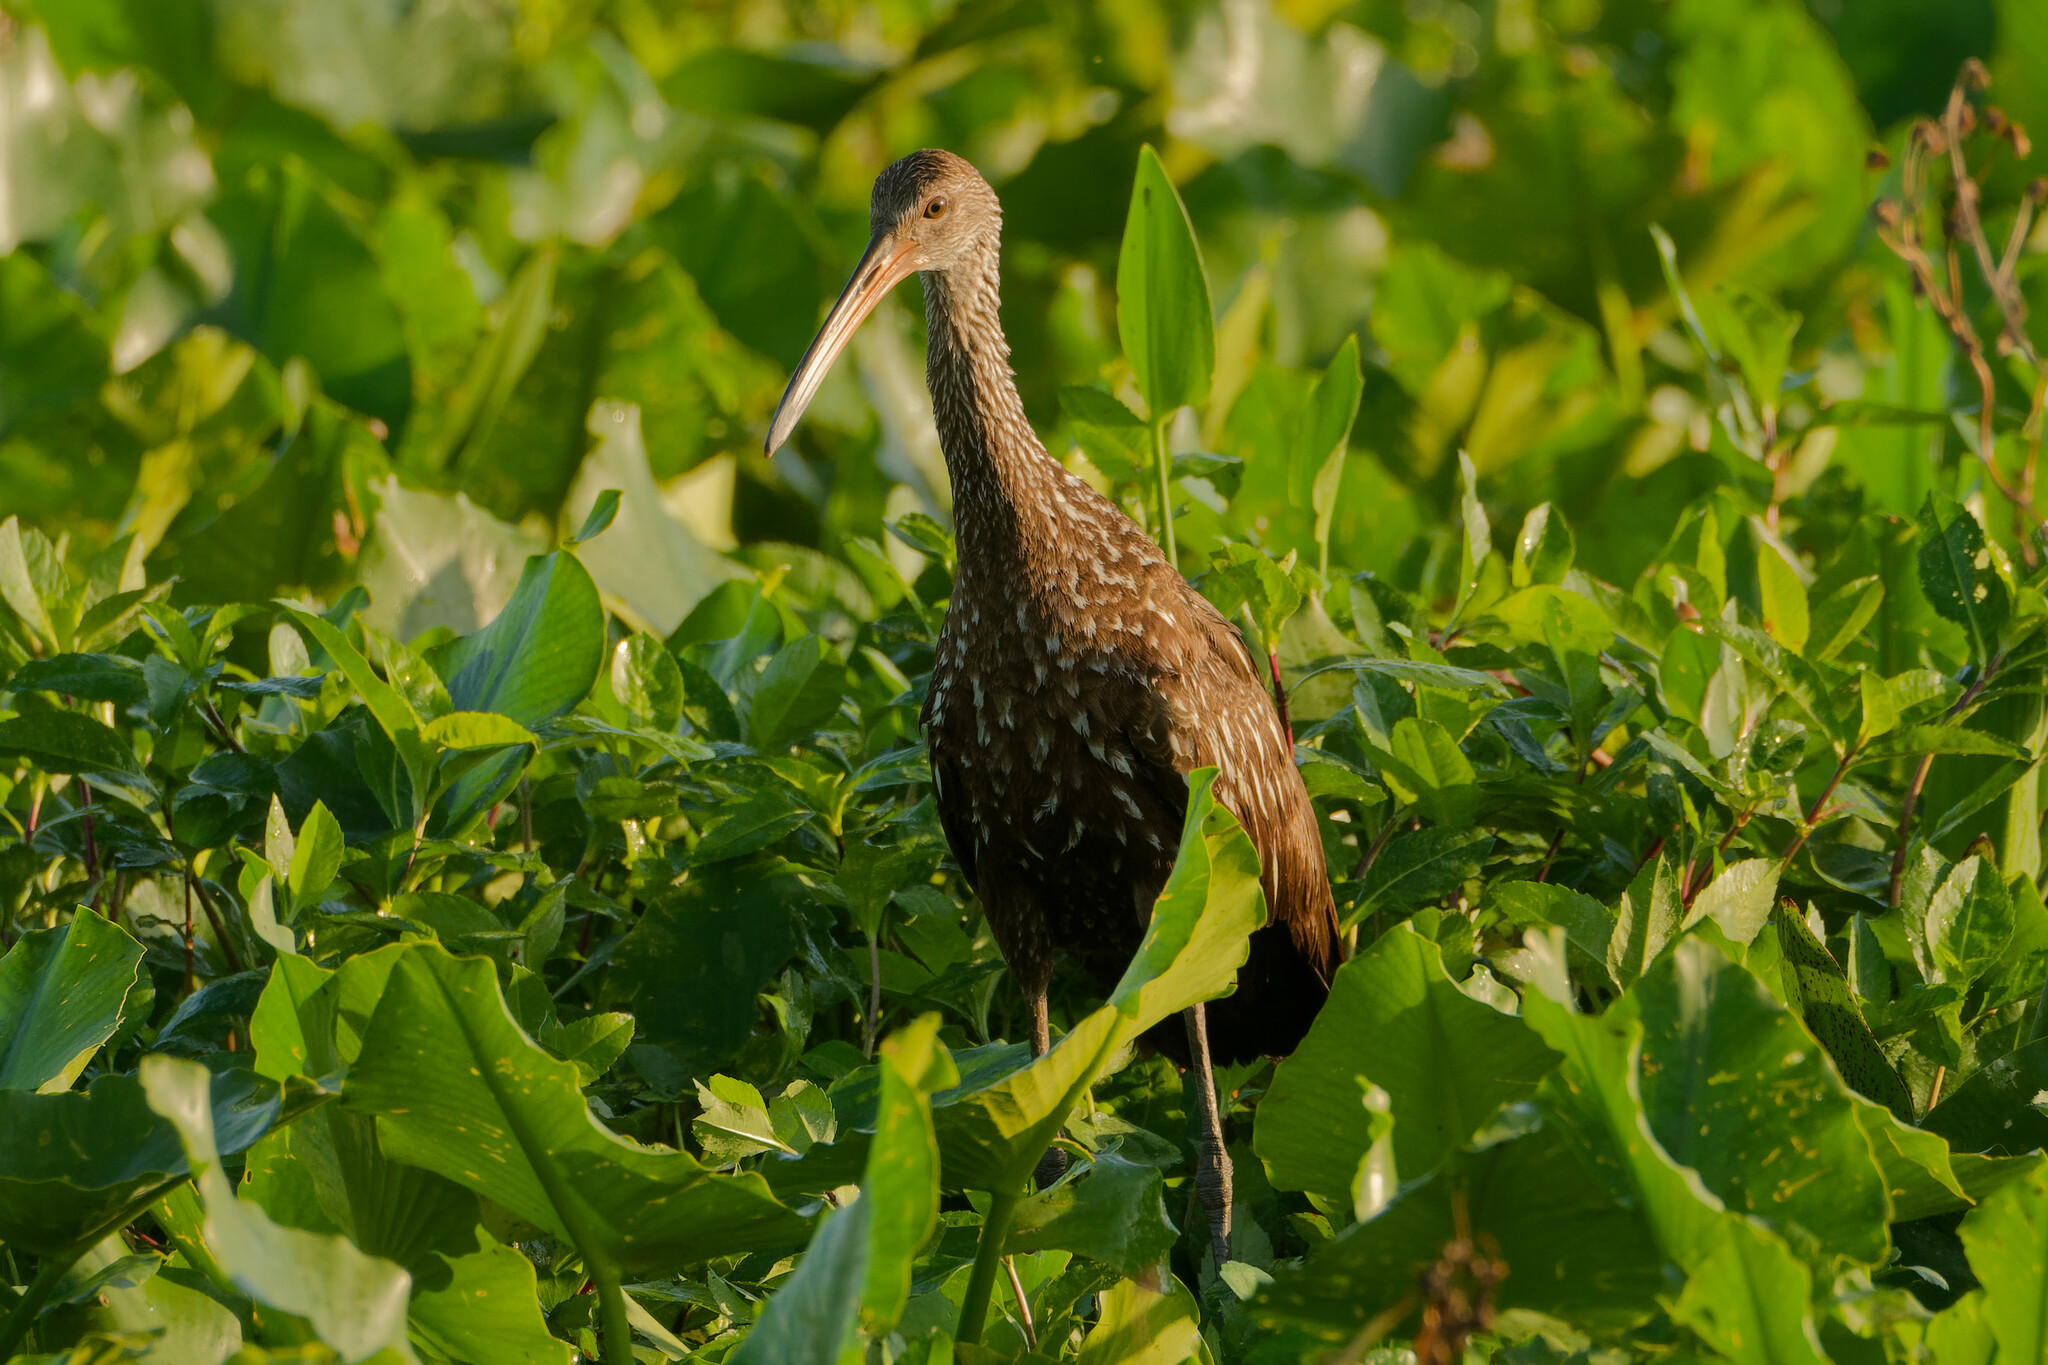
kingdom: Animalia
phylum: Chordata
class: Aves
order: Gruiformes
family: Aramidae
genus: Aramus
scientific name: Aramus guarauna
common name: Limpkin
